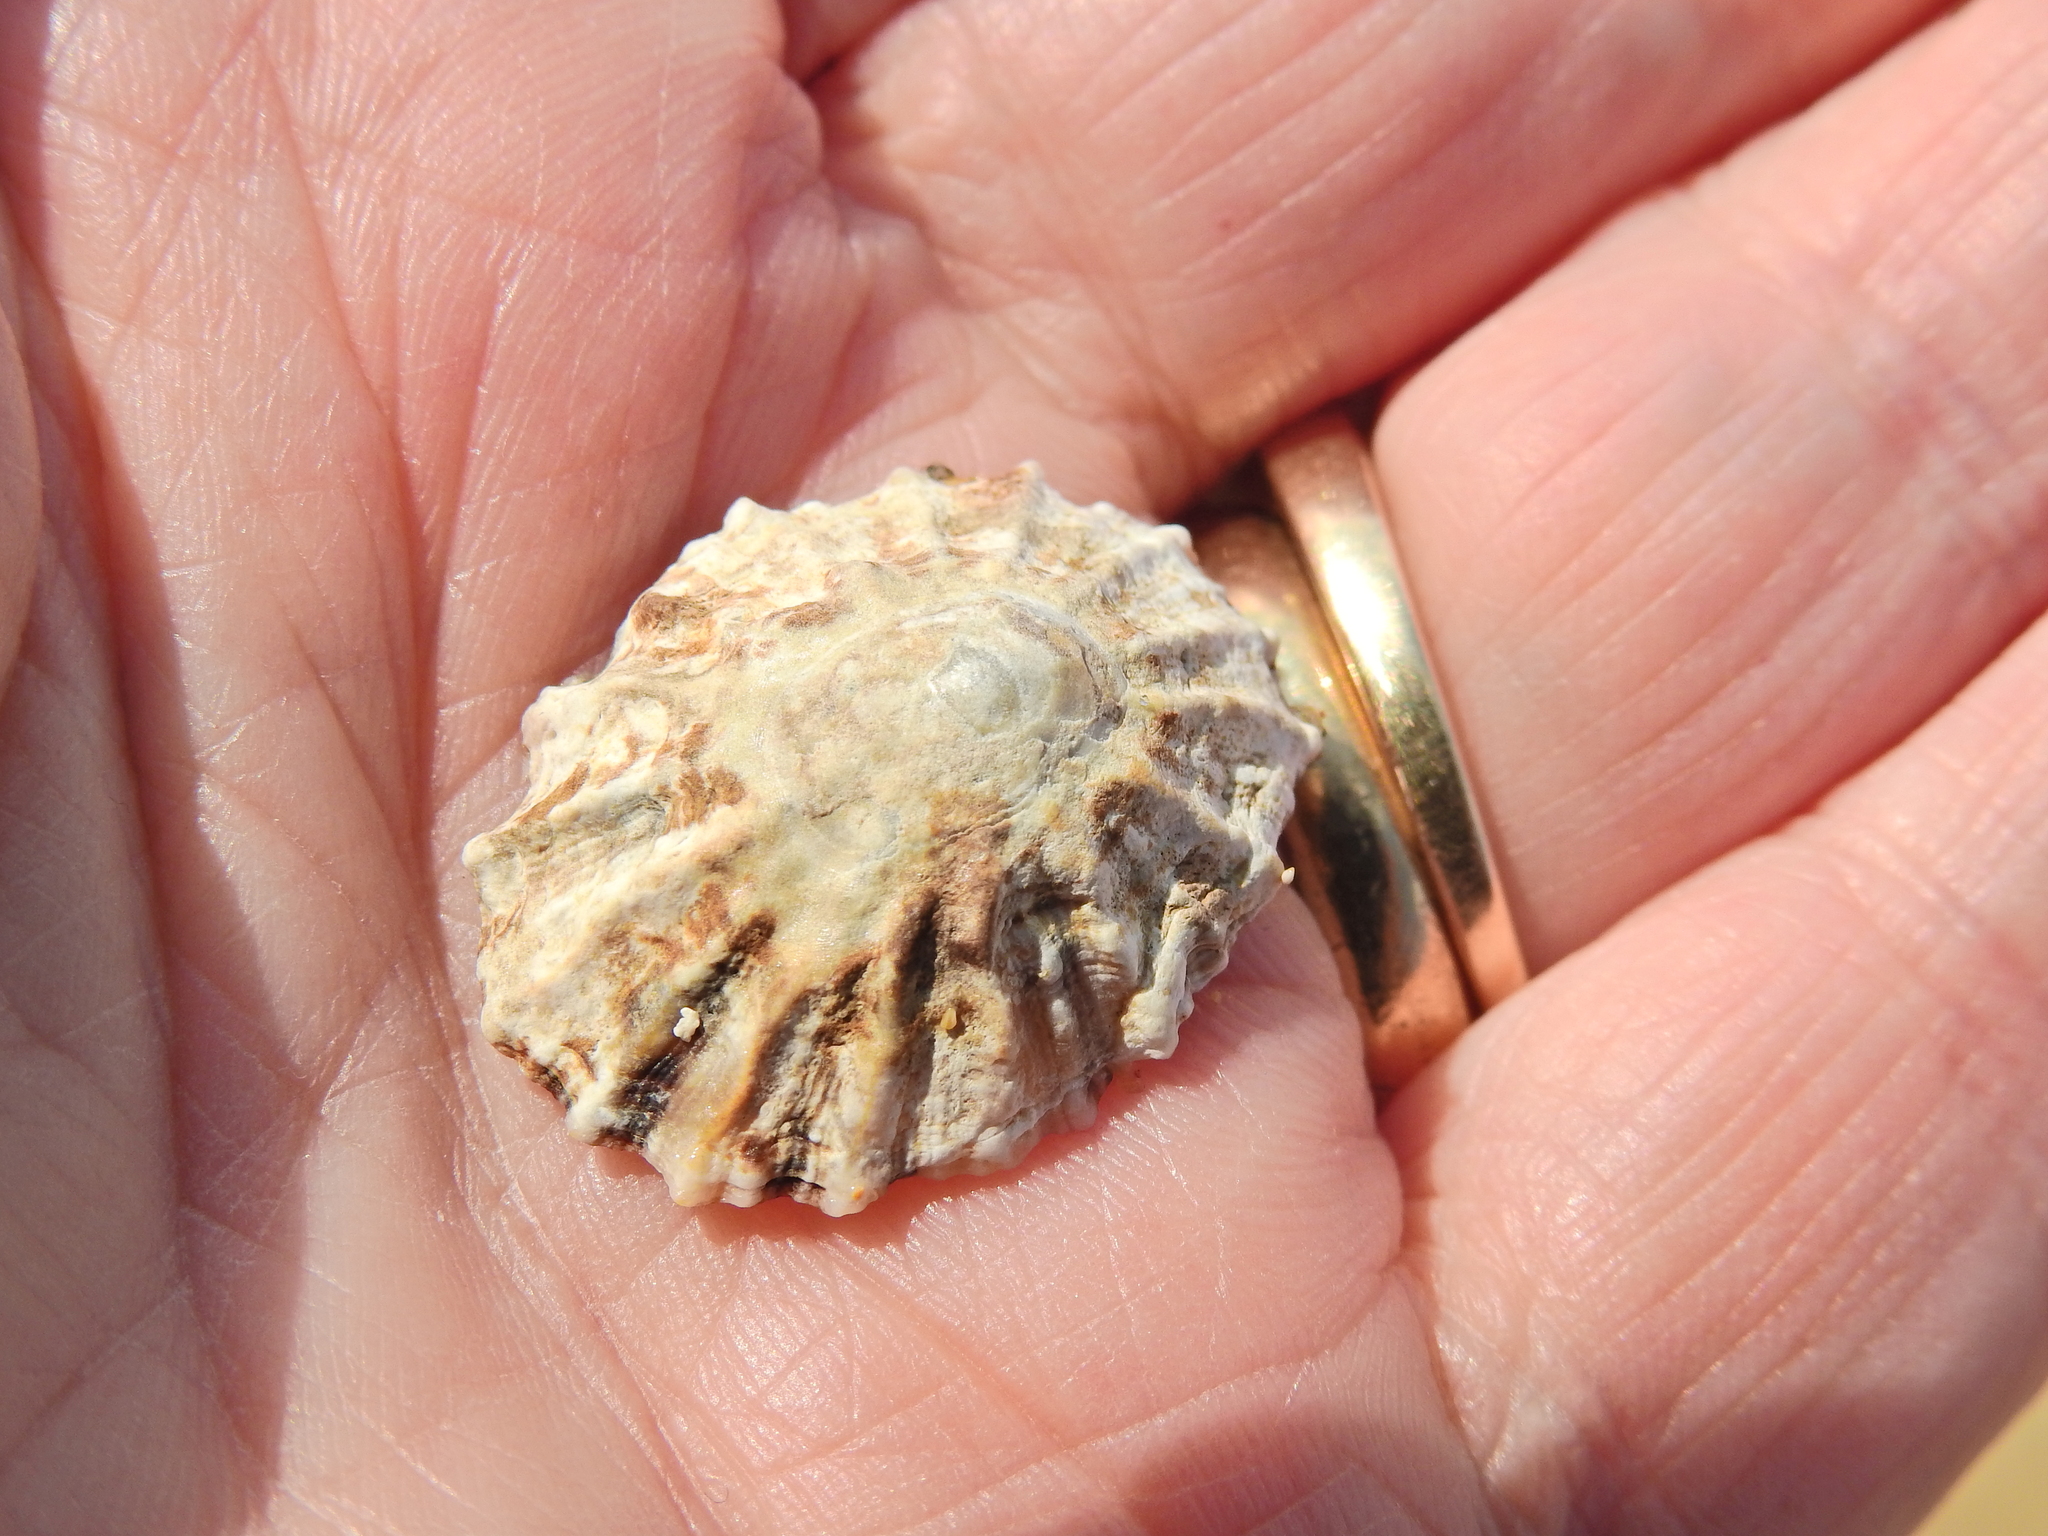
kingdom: Animalia
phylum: Mollusca
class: Gastropoda
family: Patellidae
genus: Patella
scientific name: Patella vulgata
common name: Common limpet
